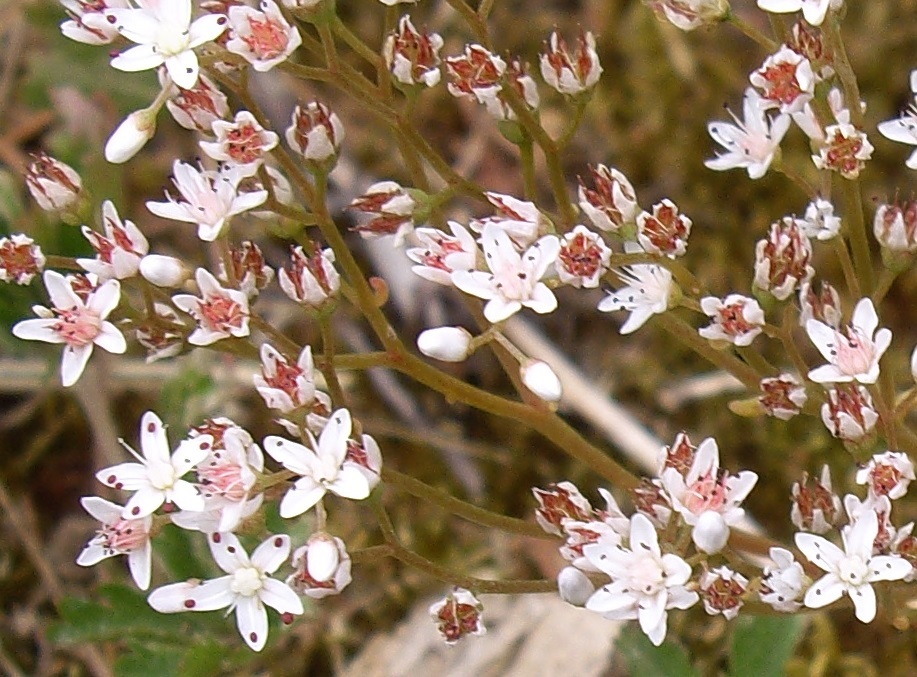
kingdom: Plantae
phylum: Tracheophyta
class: Magnoliopsida
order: Saxifragales
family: Crassulaceae
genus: Sedum
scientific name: Sedum album
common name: White stonecrop
